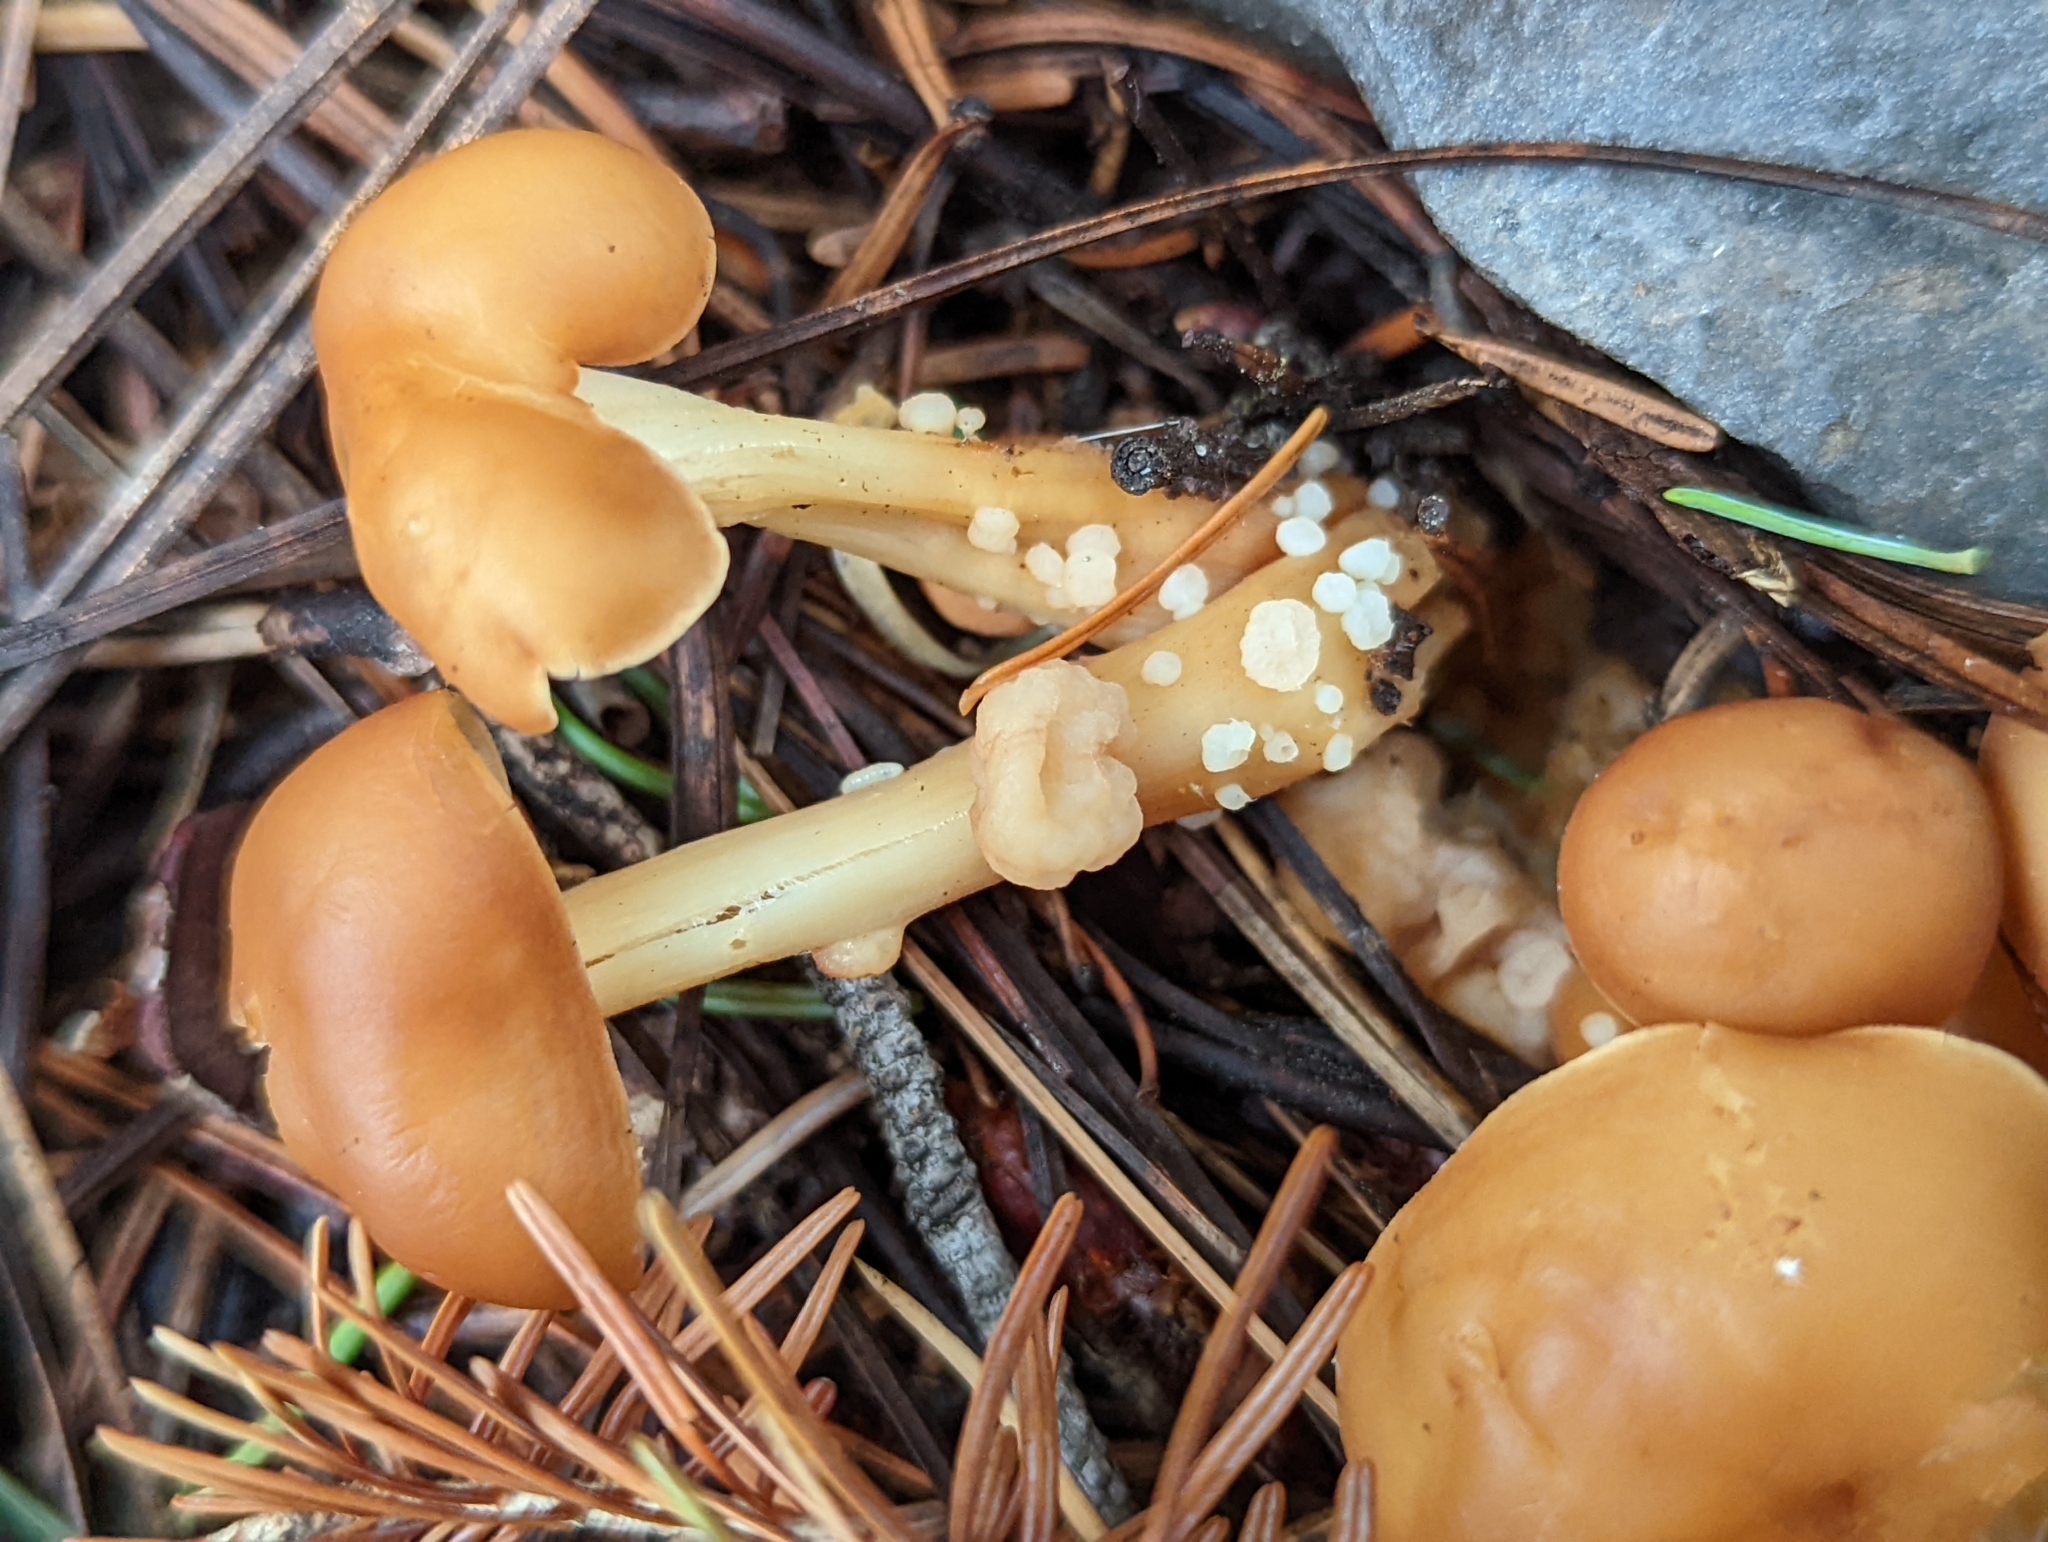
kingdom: Fungi
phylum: Basidiomycota
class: Tremellomycetes
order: Filobasidiales
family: Filobasidiaceae
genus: Syzygospora
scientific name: Syzygospora mycetophila
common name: Collybia clouds
